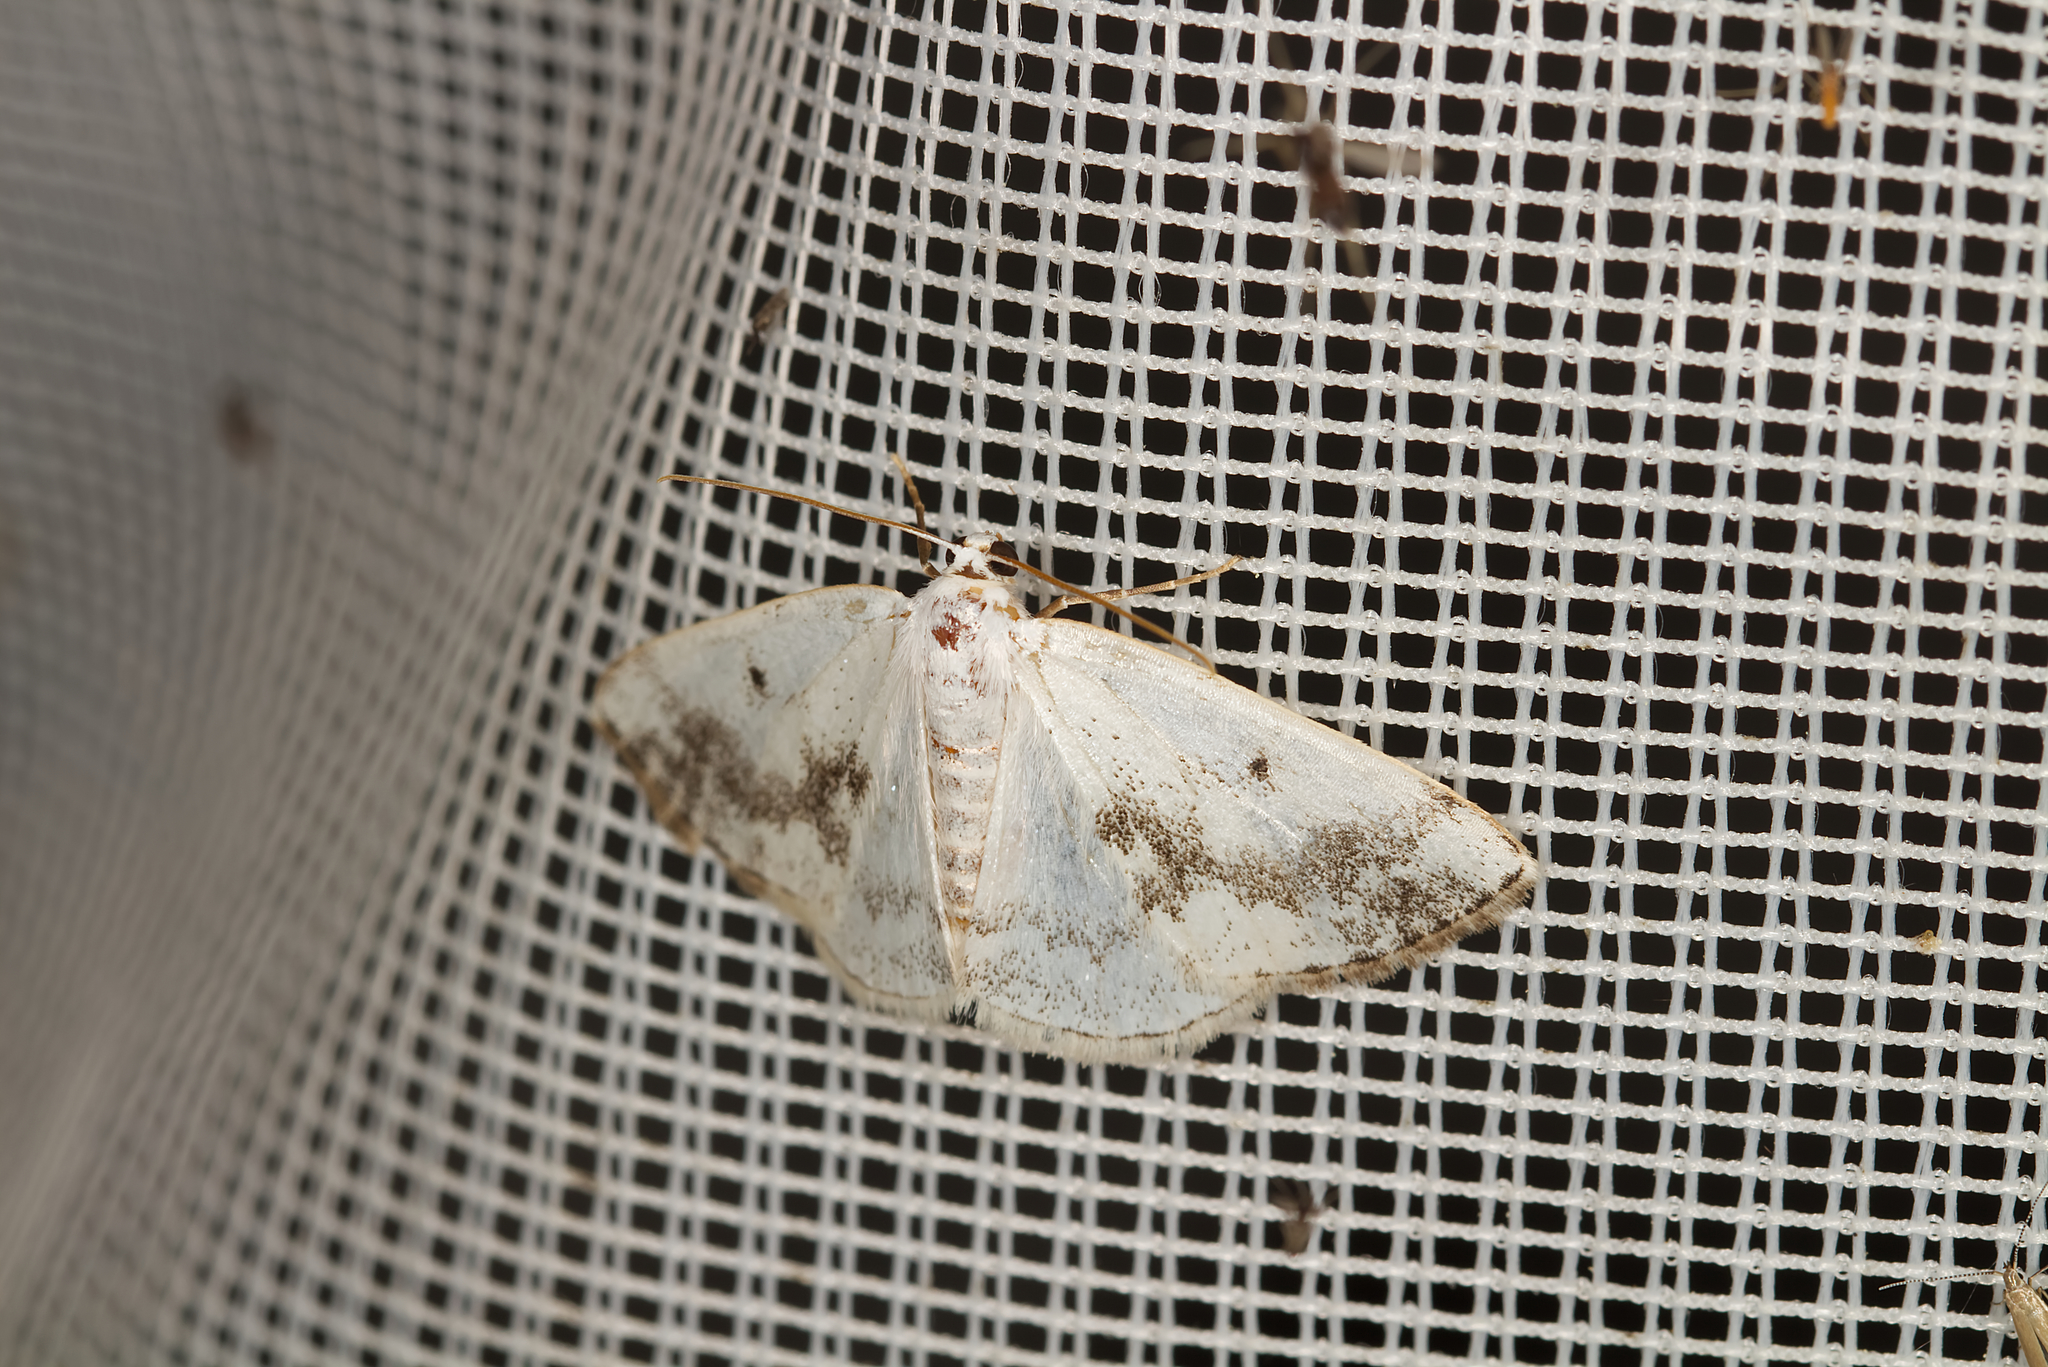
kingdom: Animalia
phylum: Arthropoda
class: Insecta
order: Lepidoptera
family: Geometridae
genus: Lomographa
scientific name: Lomographa temerata
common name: Clouded silver
